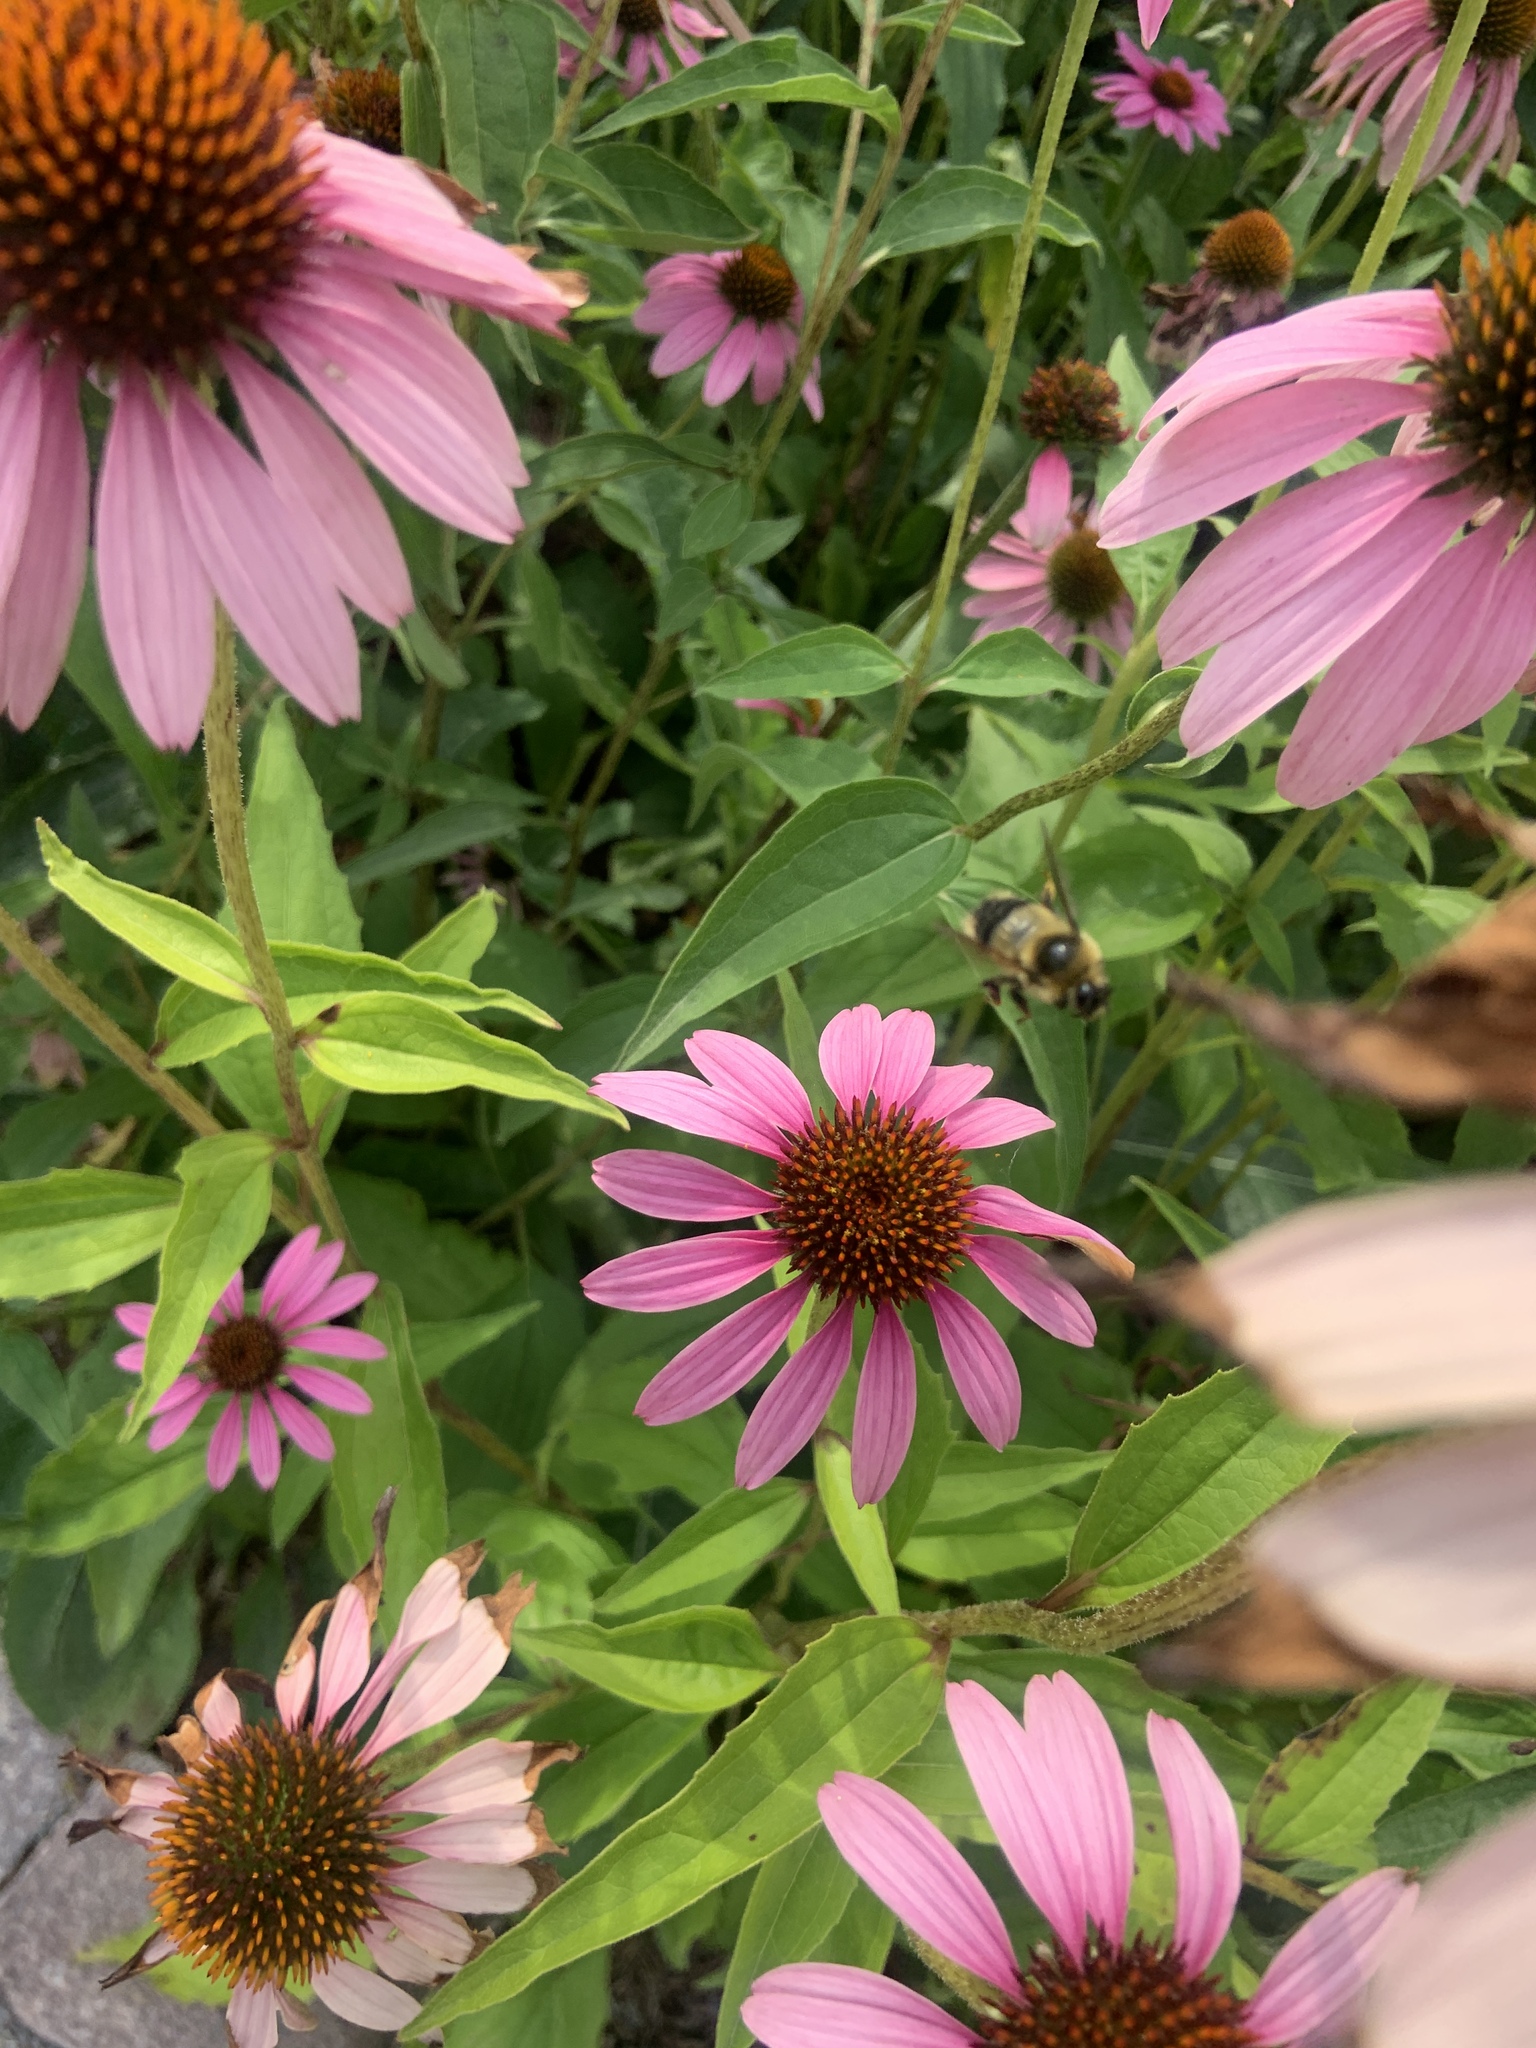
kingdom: Animalia
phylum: Arthropoda
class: Insecta
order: Hymenoptera
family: Apidae
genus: Bombus
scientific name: Bombus rufocinctus
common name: Red-belted bumble bee
